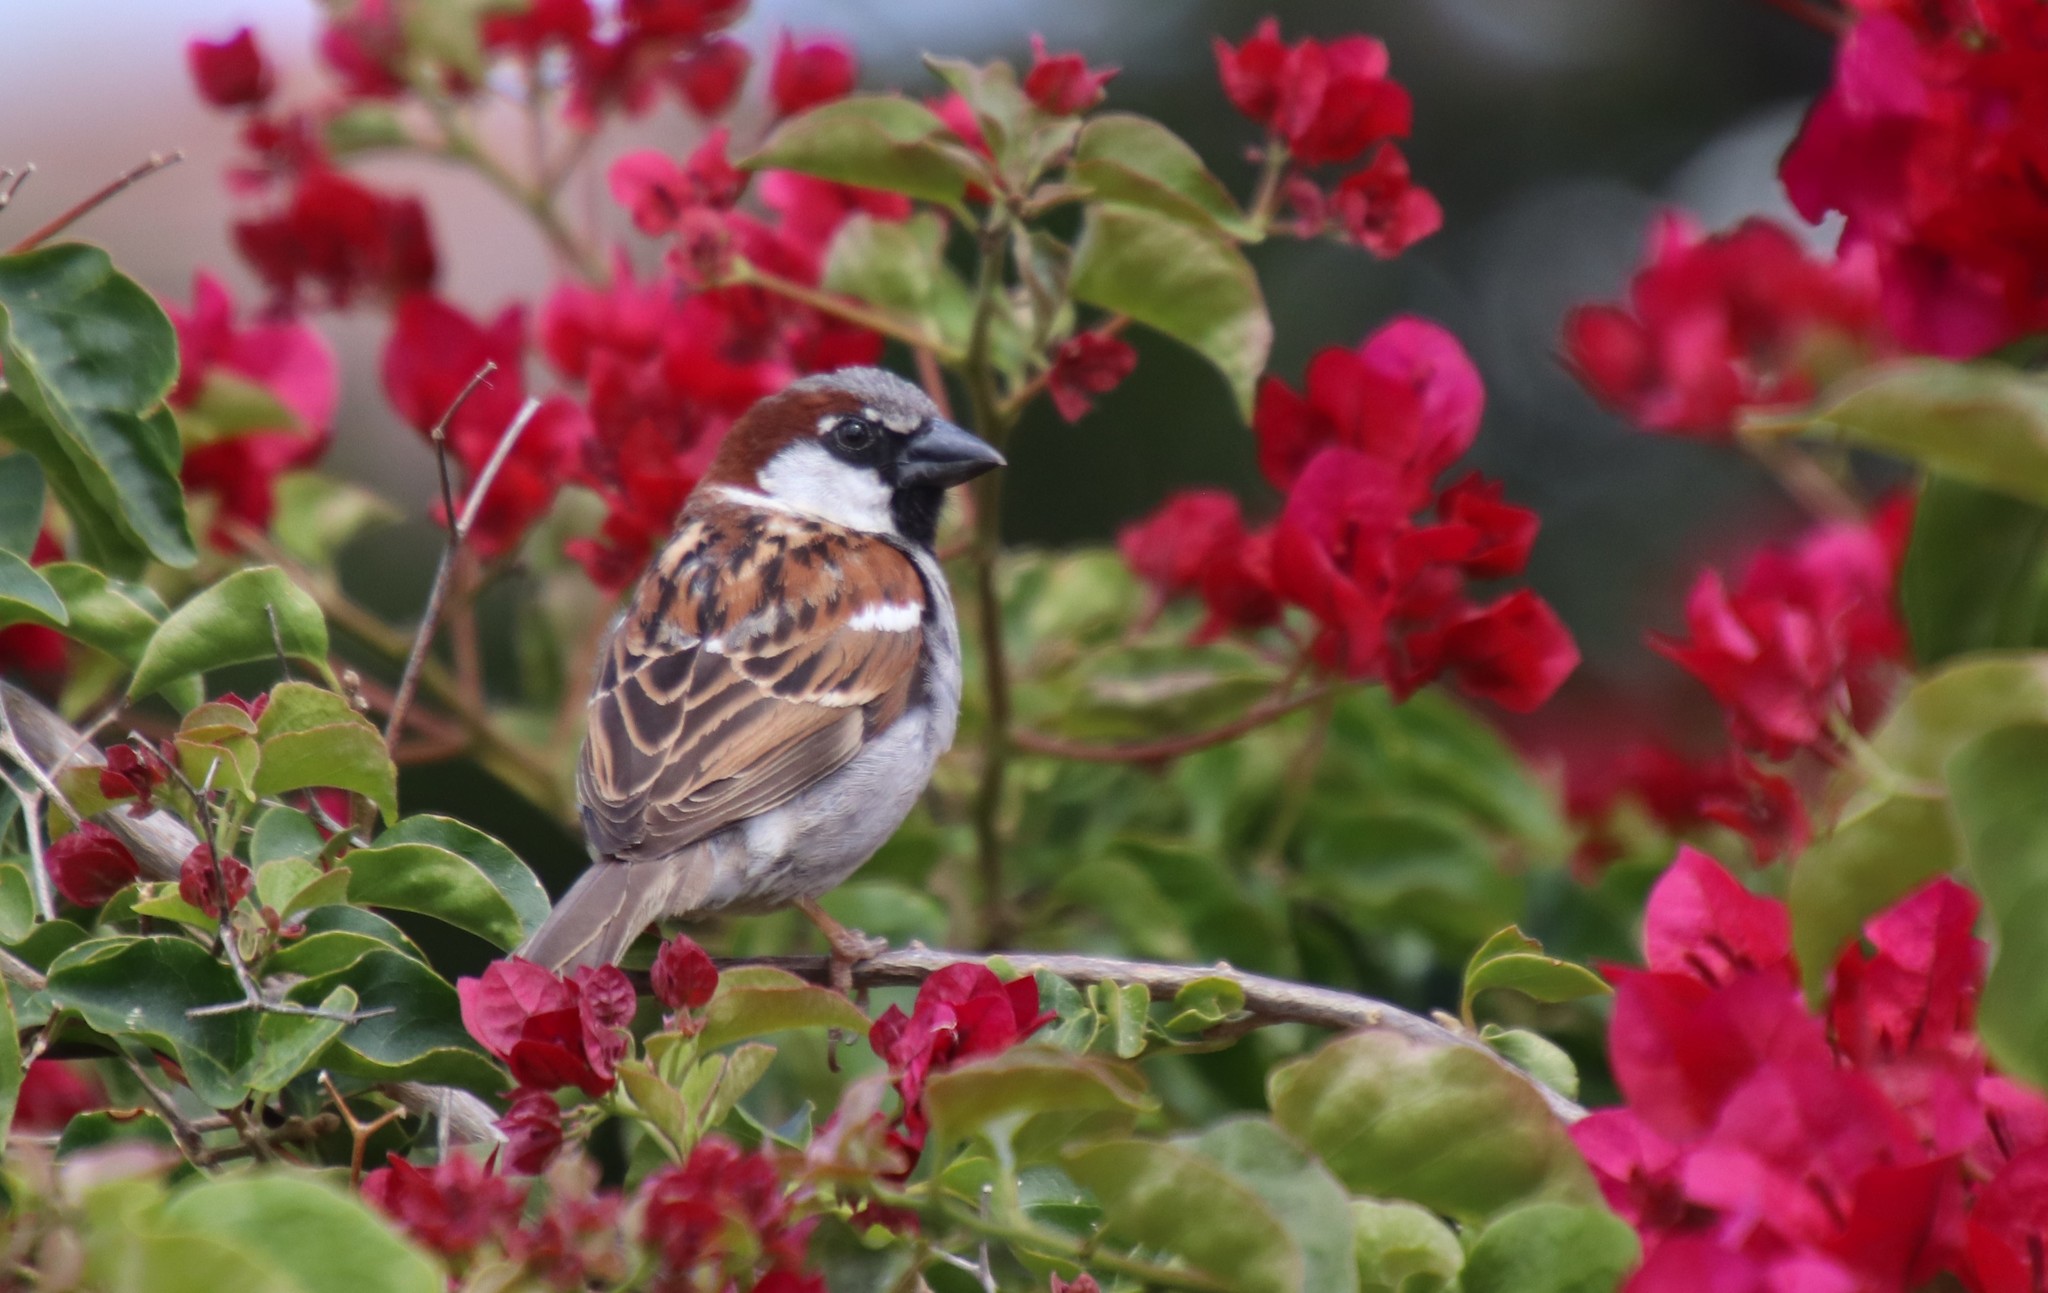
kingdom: Animalia
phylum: Chordata
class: Aves
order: Passeriformes
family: Passeridae
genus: Passer
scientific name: Passer domesticus
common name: House sparrow
